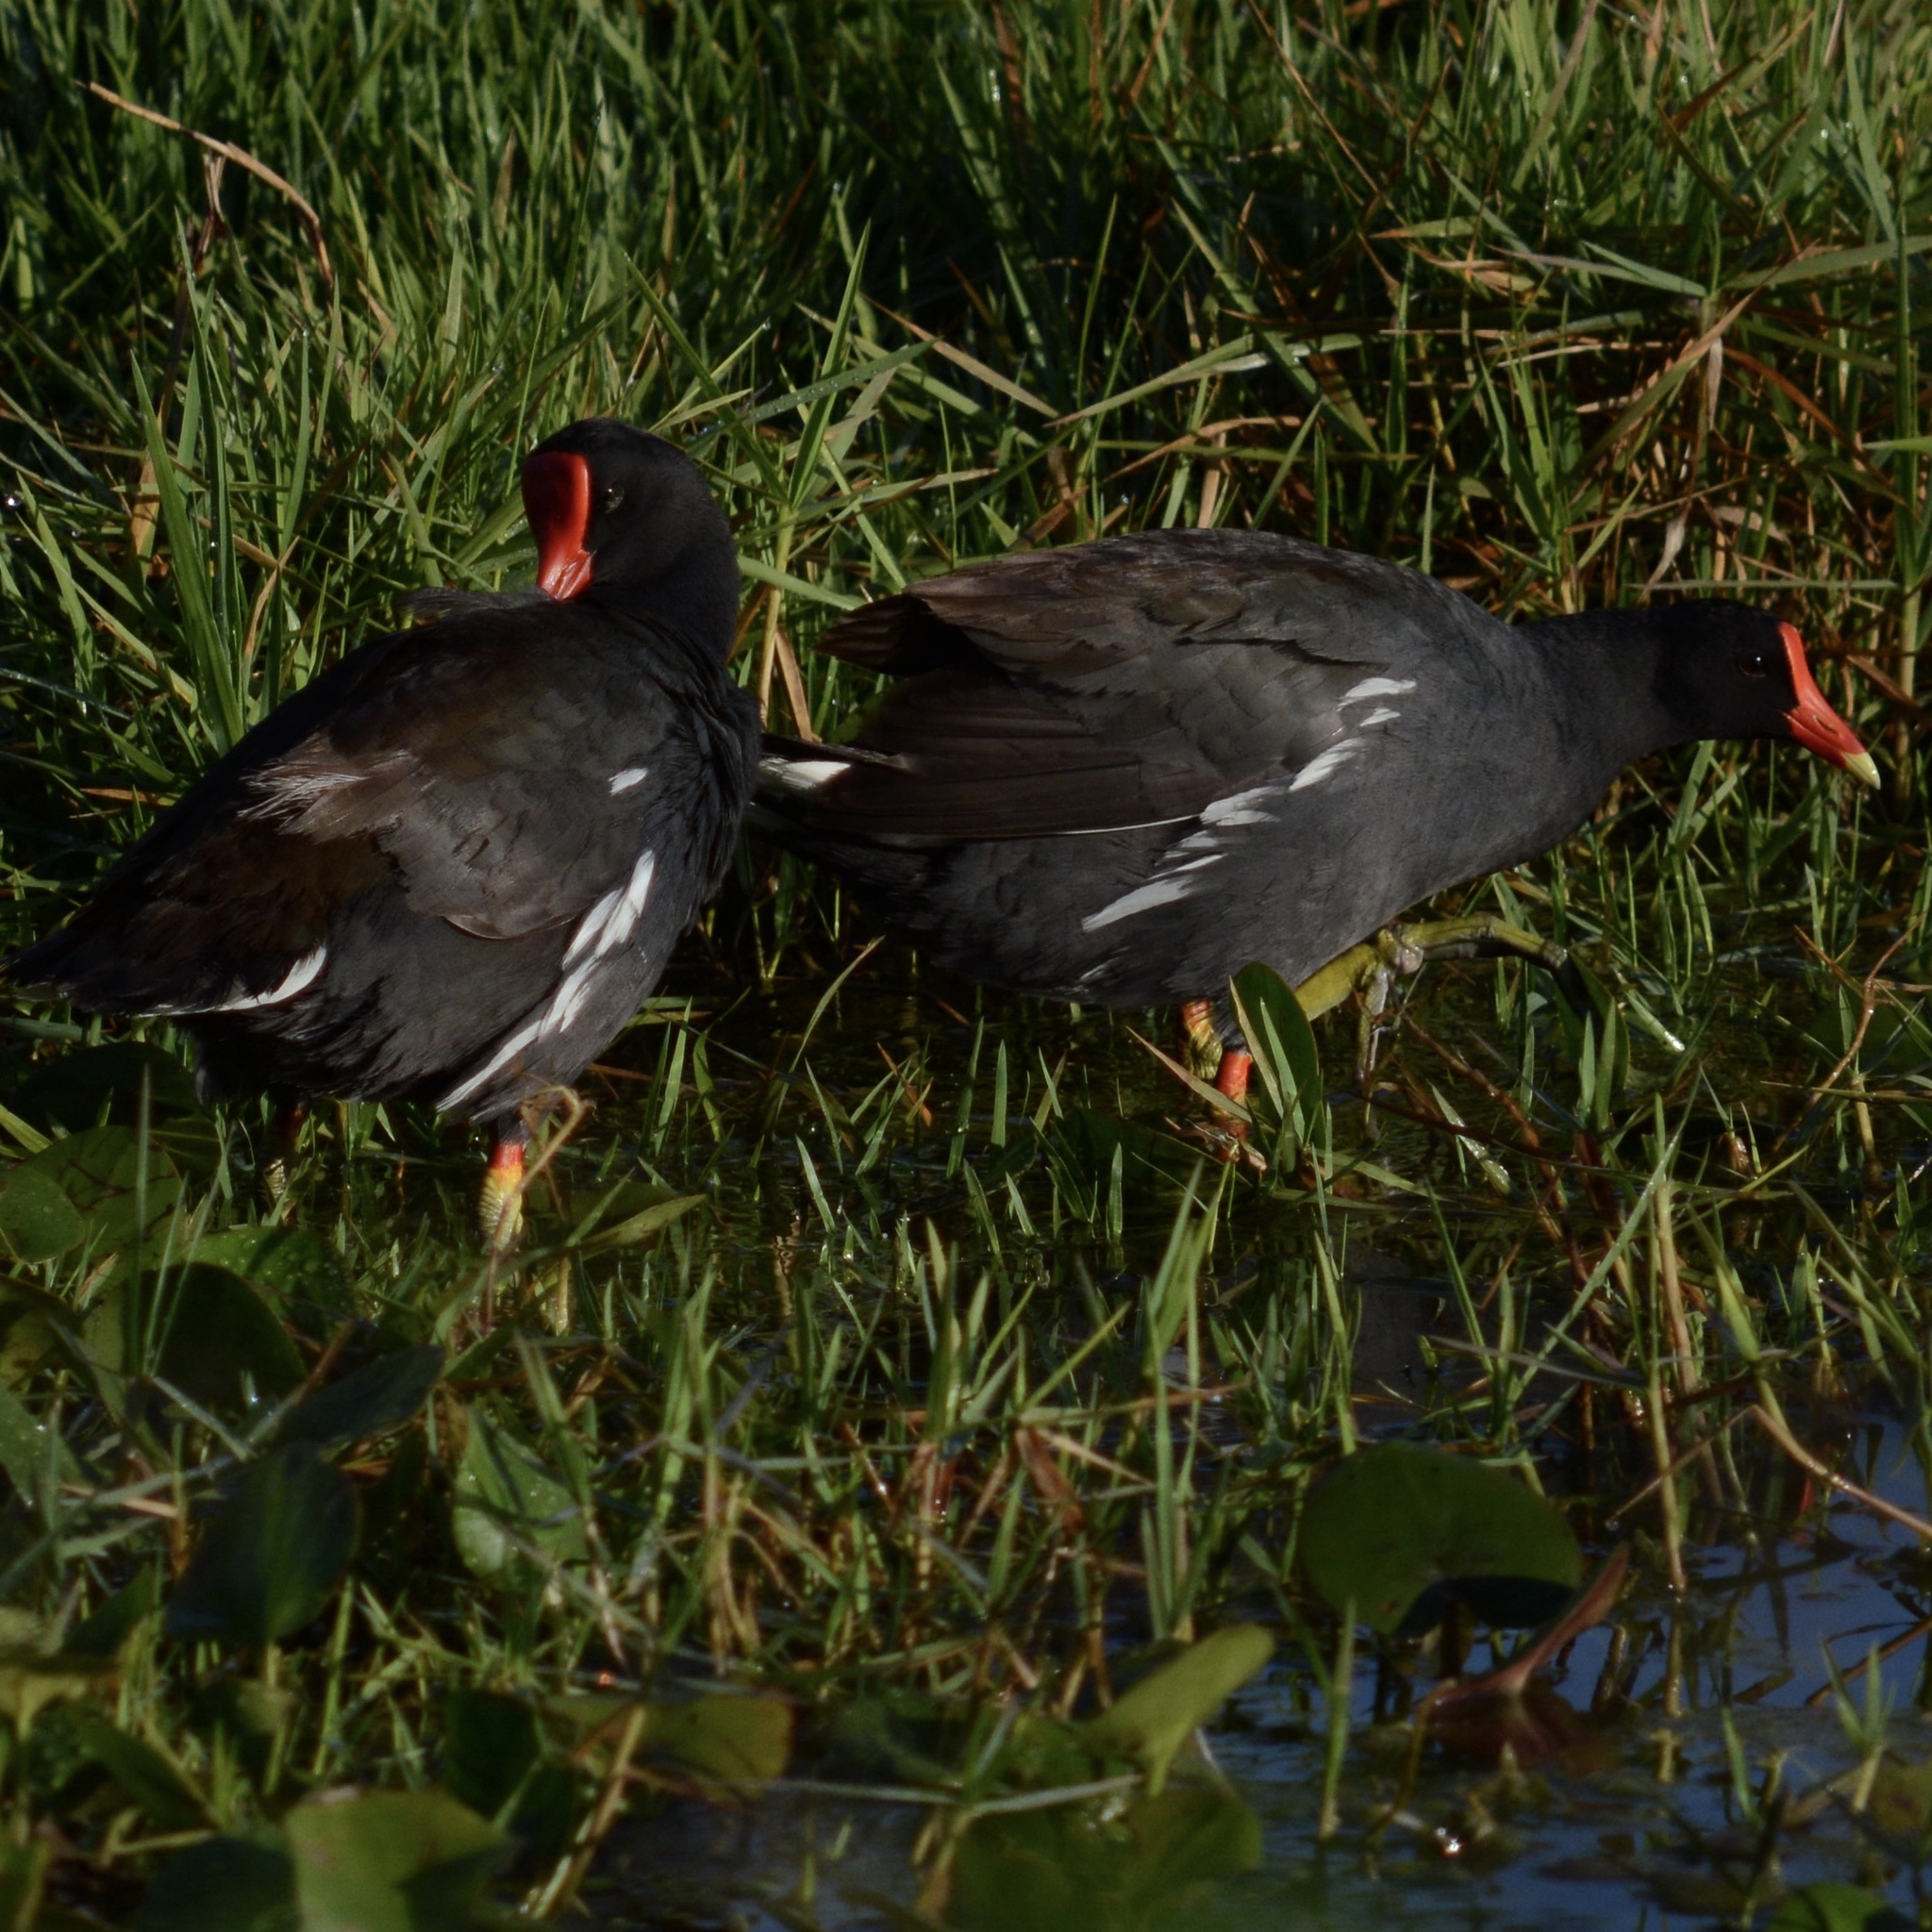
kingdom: Animalia
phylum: Chordata
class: Aves
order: Gruiformes
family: Rallidae
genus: Gallinula
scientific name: Gallinula chloropus
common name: Common moorhen
